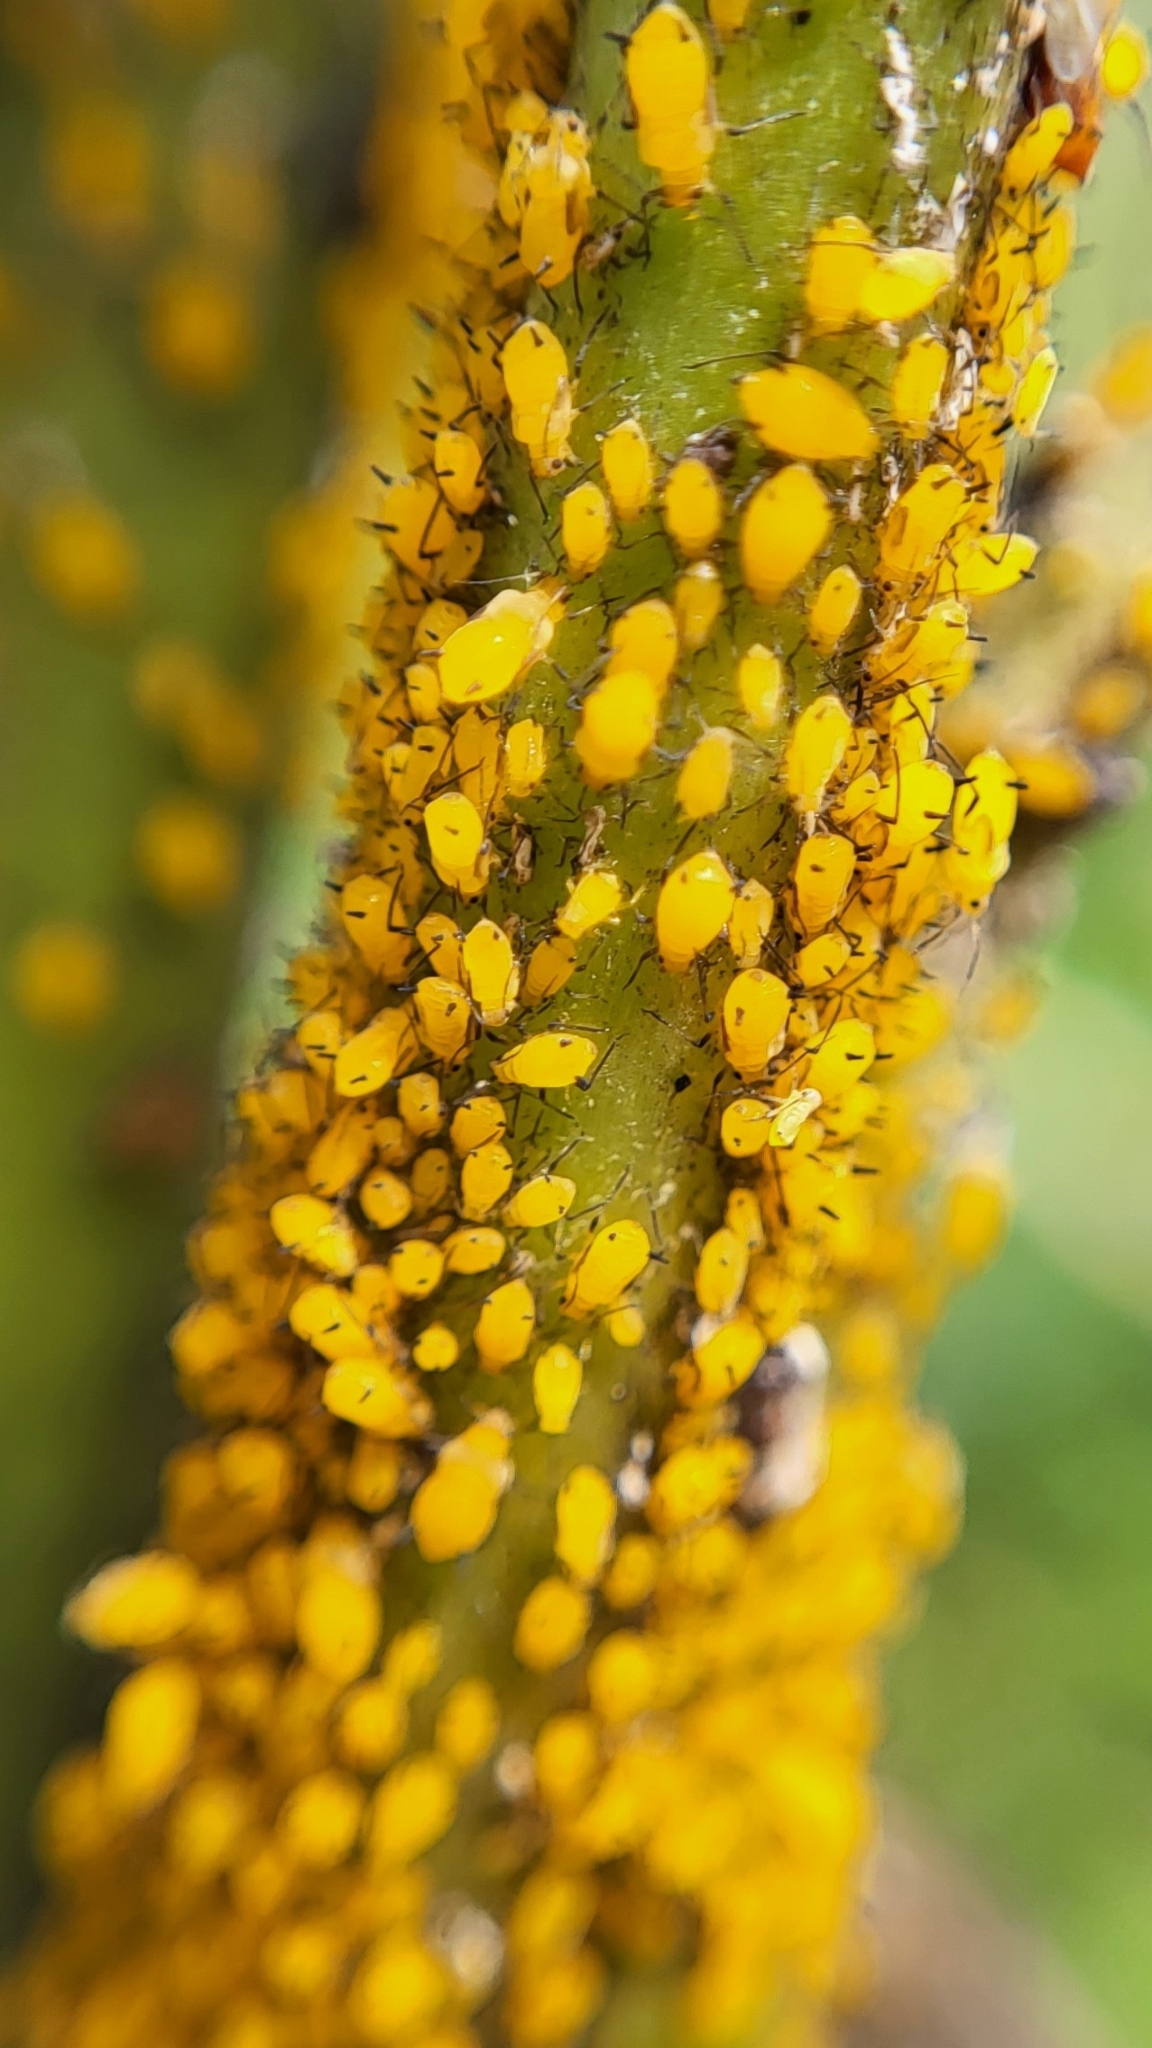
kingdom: Animalia
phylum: Arthropoda
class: Insecta
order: Hemiptera
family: Aphididae
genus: Aphis
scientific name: Aphis nerii
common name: Oleander aphid
